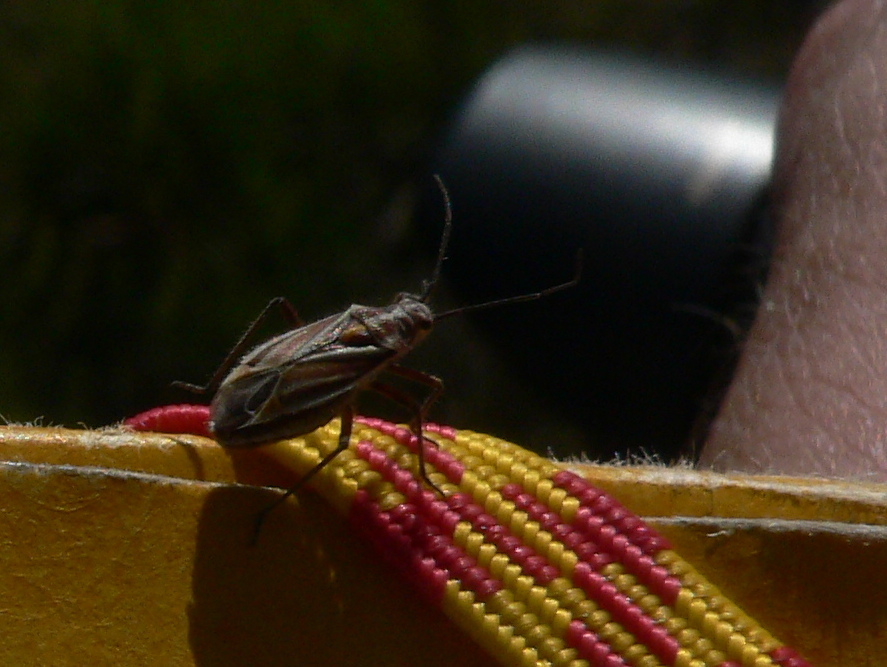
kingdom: Animalia
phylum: Arthropoda
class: Insecta
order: Hemiptera
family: Miridae
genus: Horistus
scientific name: Horistus orientalis
